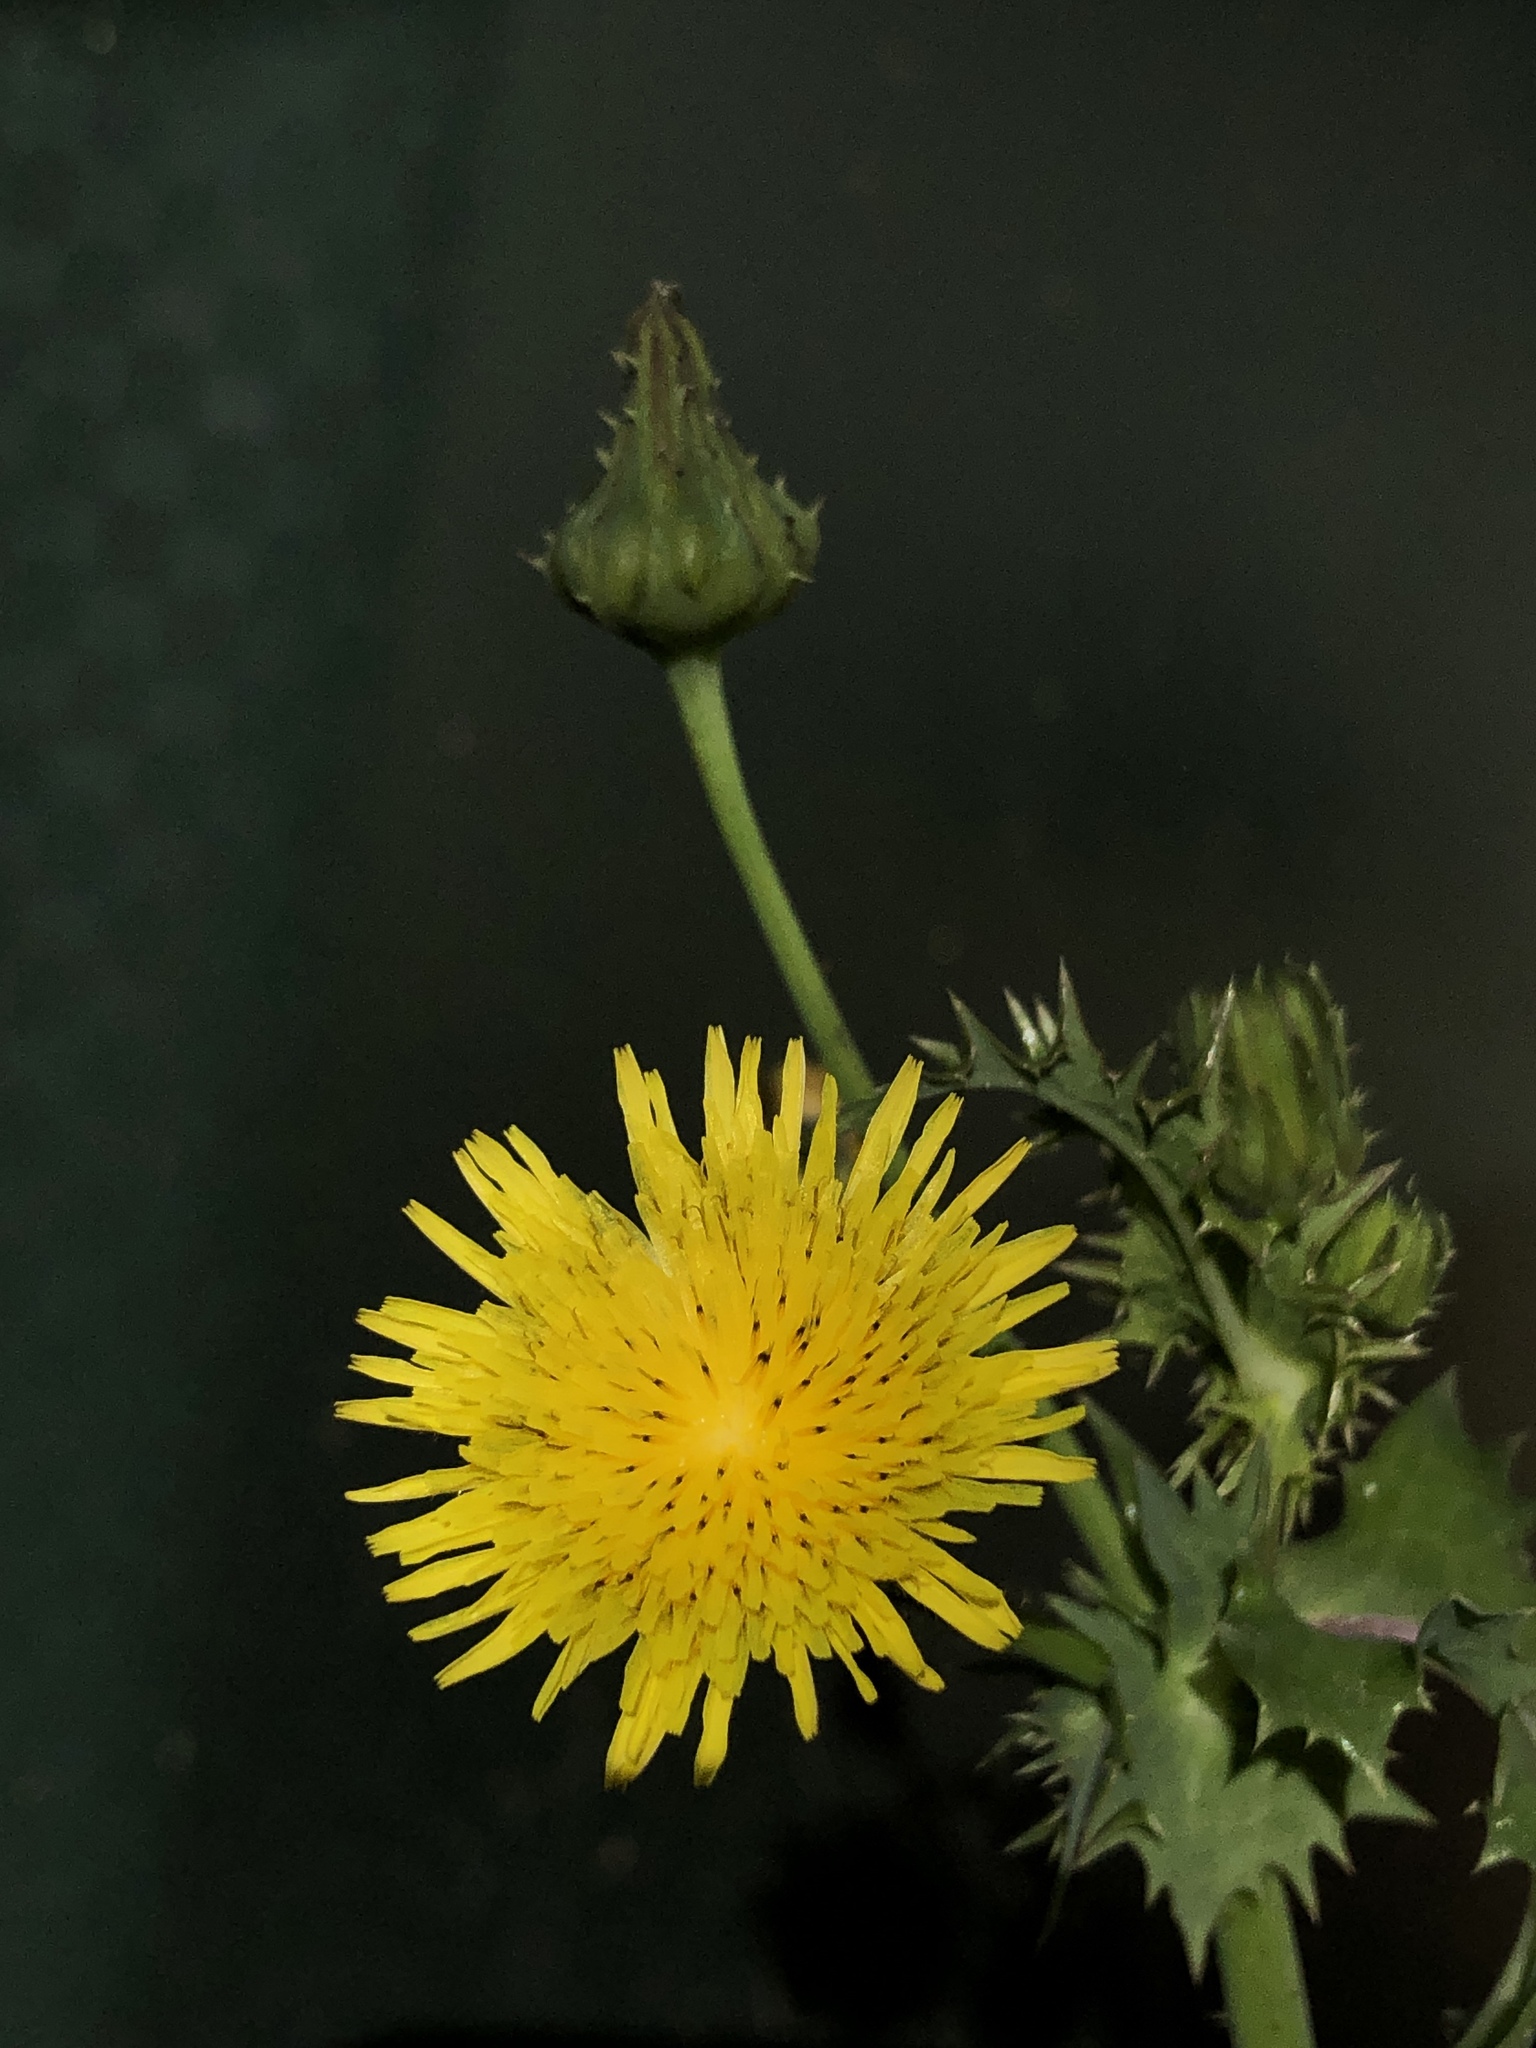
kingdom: Plantae
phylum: Tracheophyta
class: Magnoliopsida
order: Asterales
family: Asteraceae
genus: Sonchus
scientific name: Sonchus asper
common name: Prickly sow-thistle
